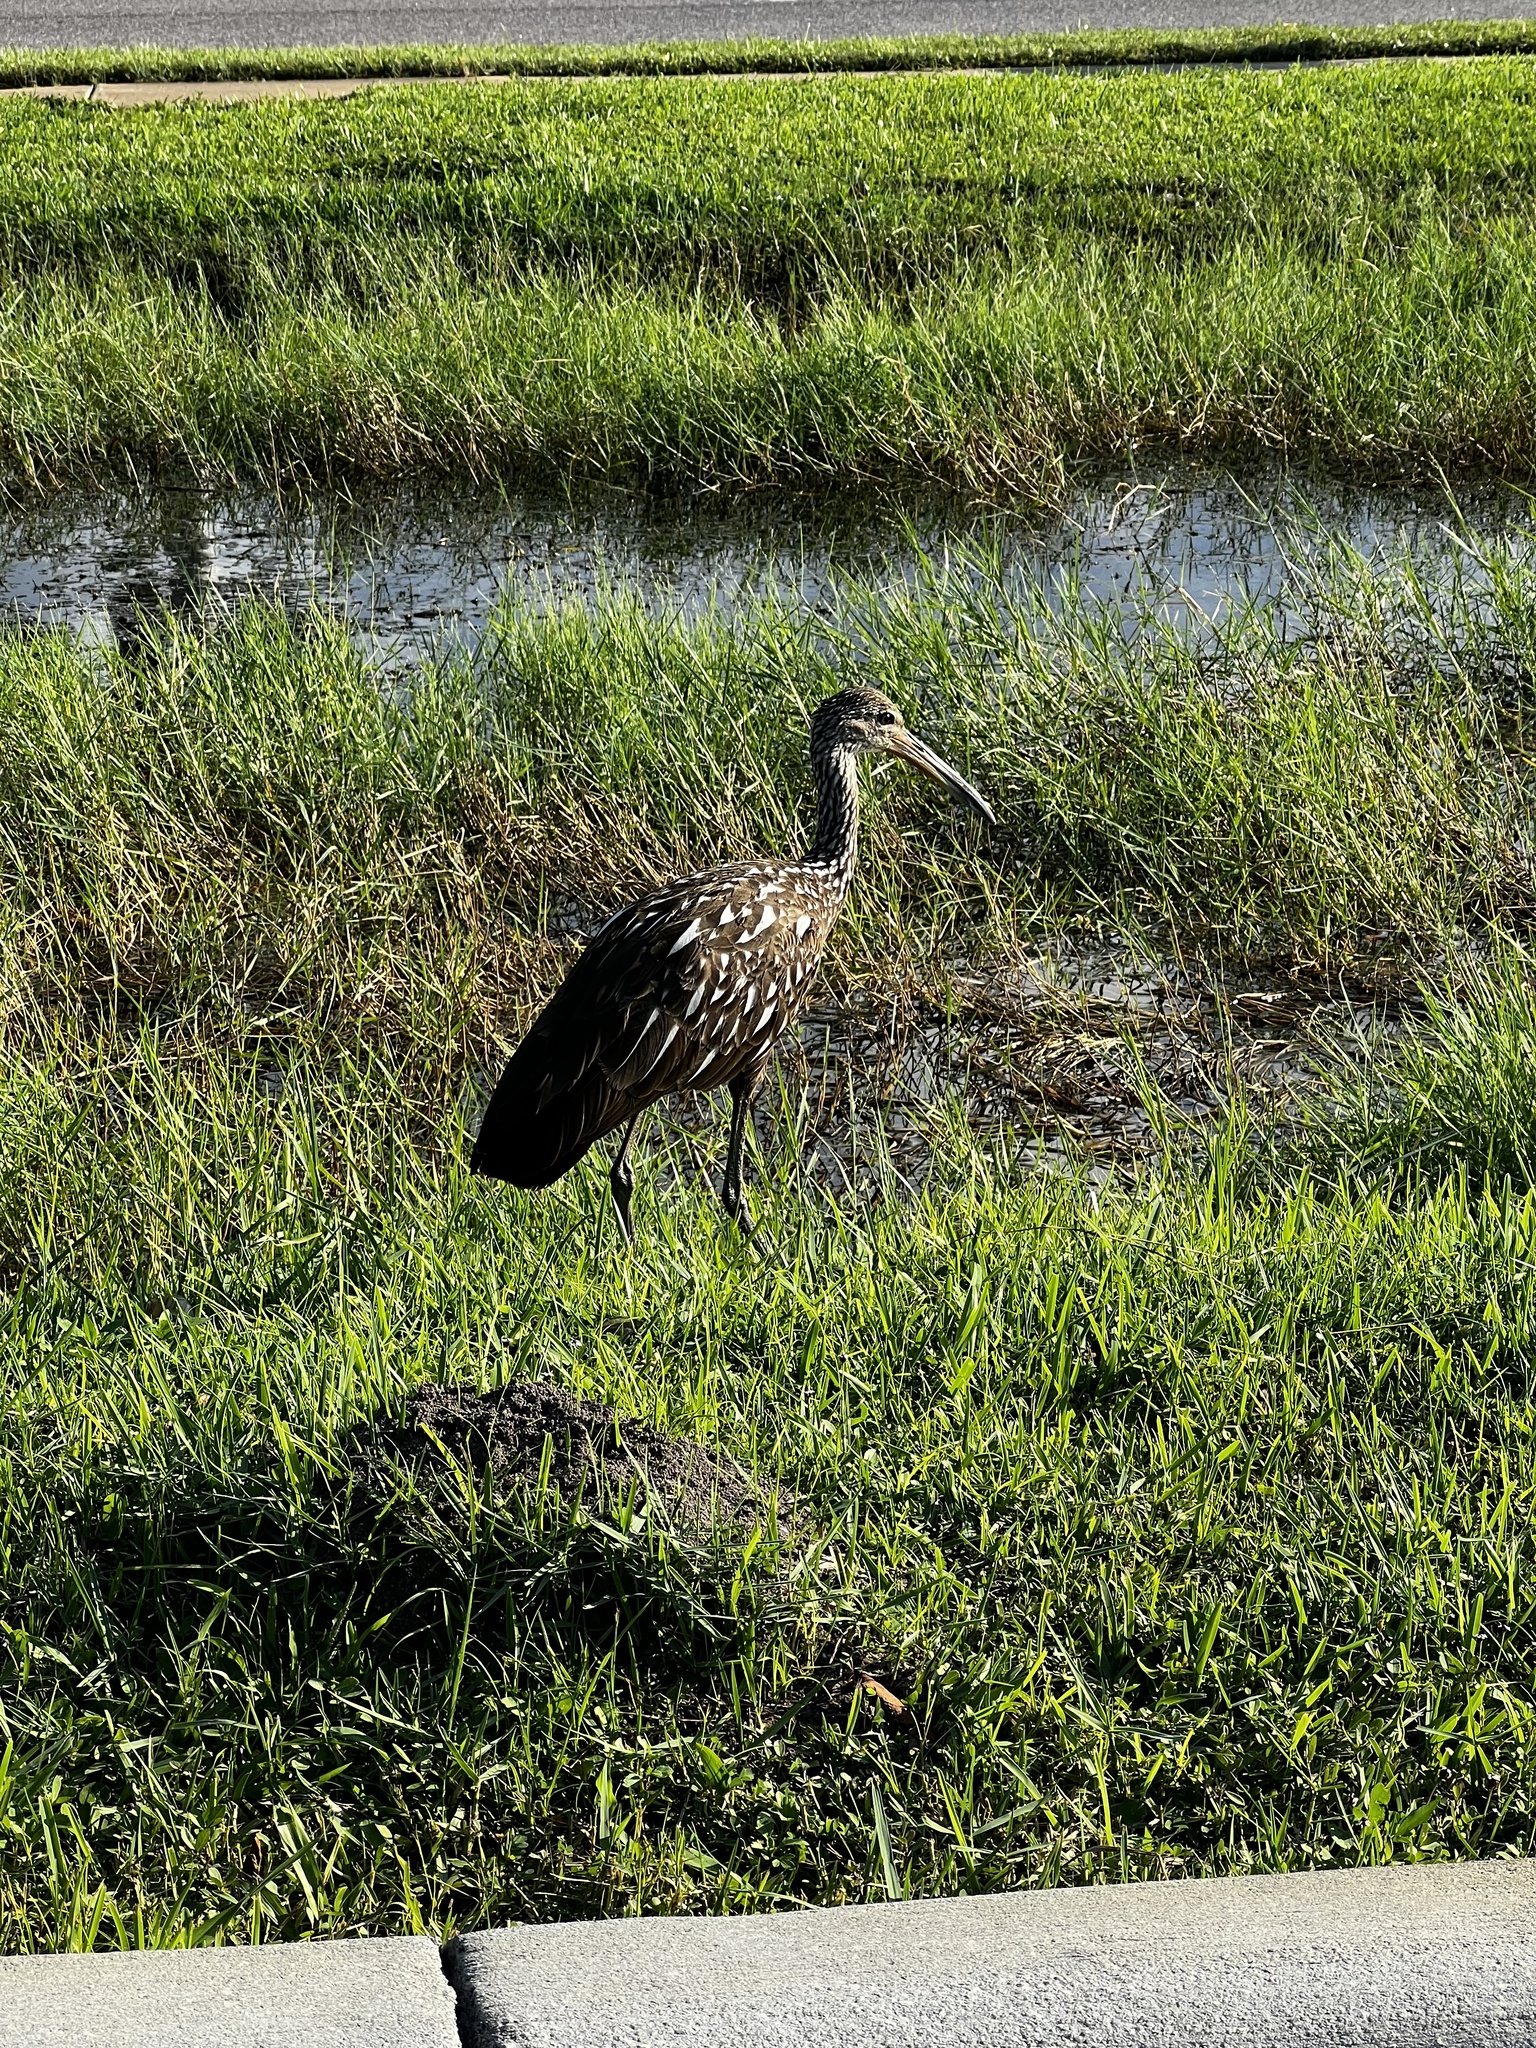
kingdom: Animalia
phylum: Chordata
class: Aves
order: Gruiformes
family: Aramidae
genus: Aramus
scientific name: Aramus guarauna
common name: Limpkin
